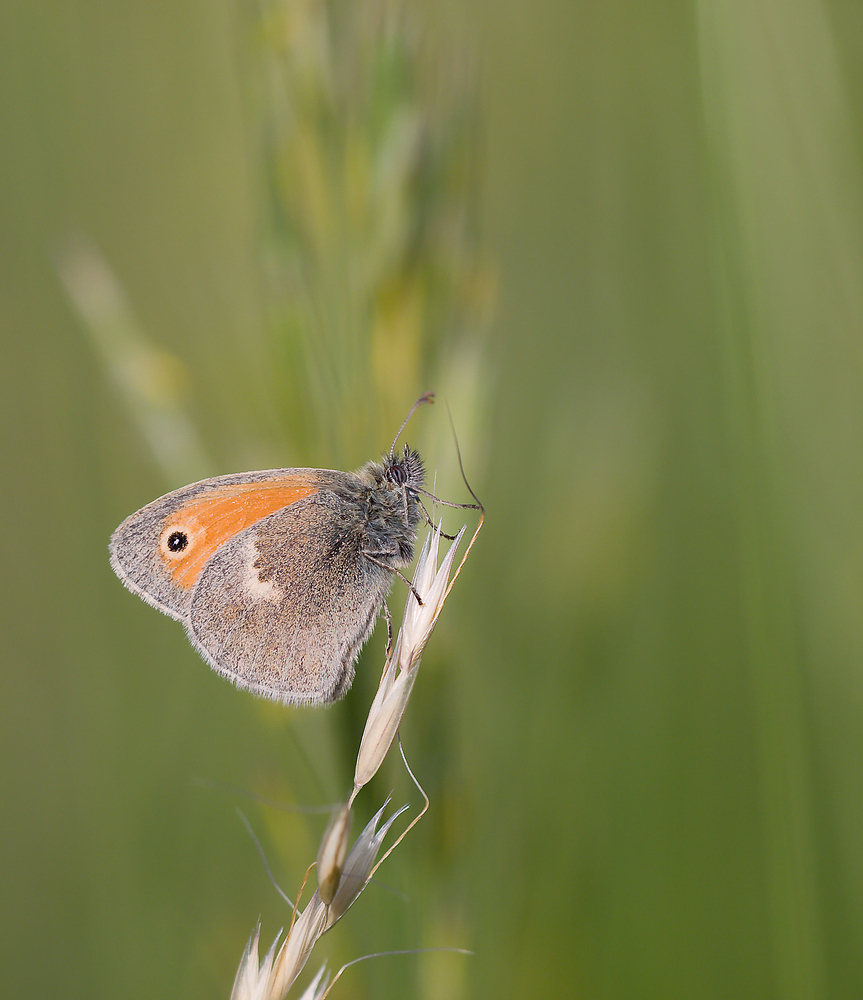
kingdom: Animalia
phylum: Arthropoda
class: Insecta
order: Lepidoptera
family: Nymphalidae
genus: Coenonympha
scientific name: Coenonympha pamphilus
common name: Small heath
